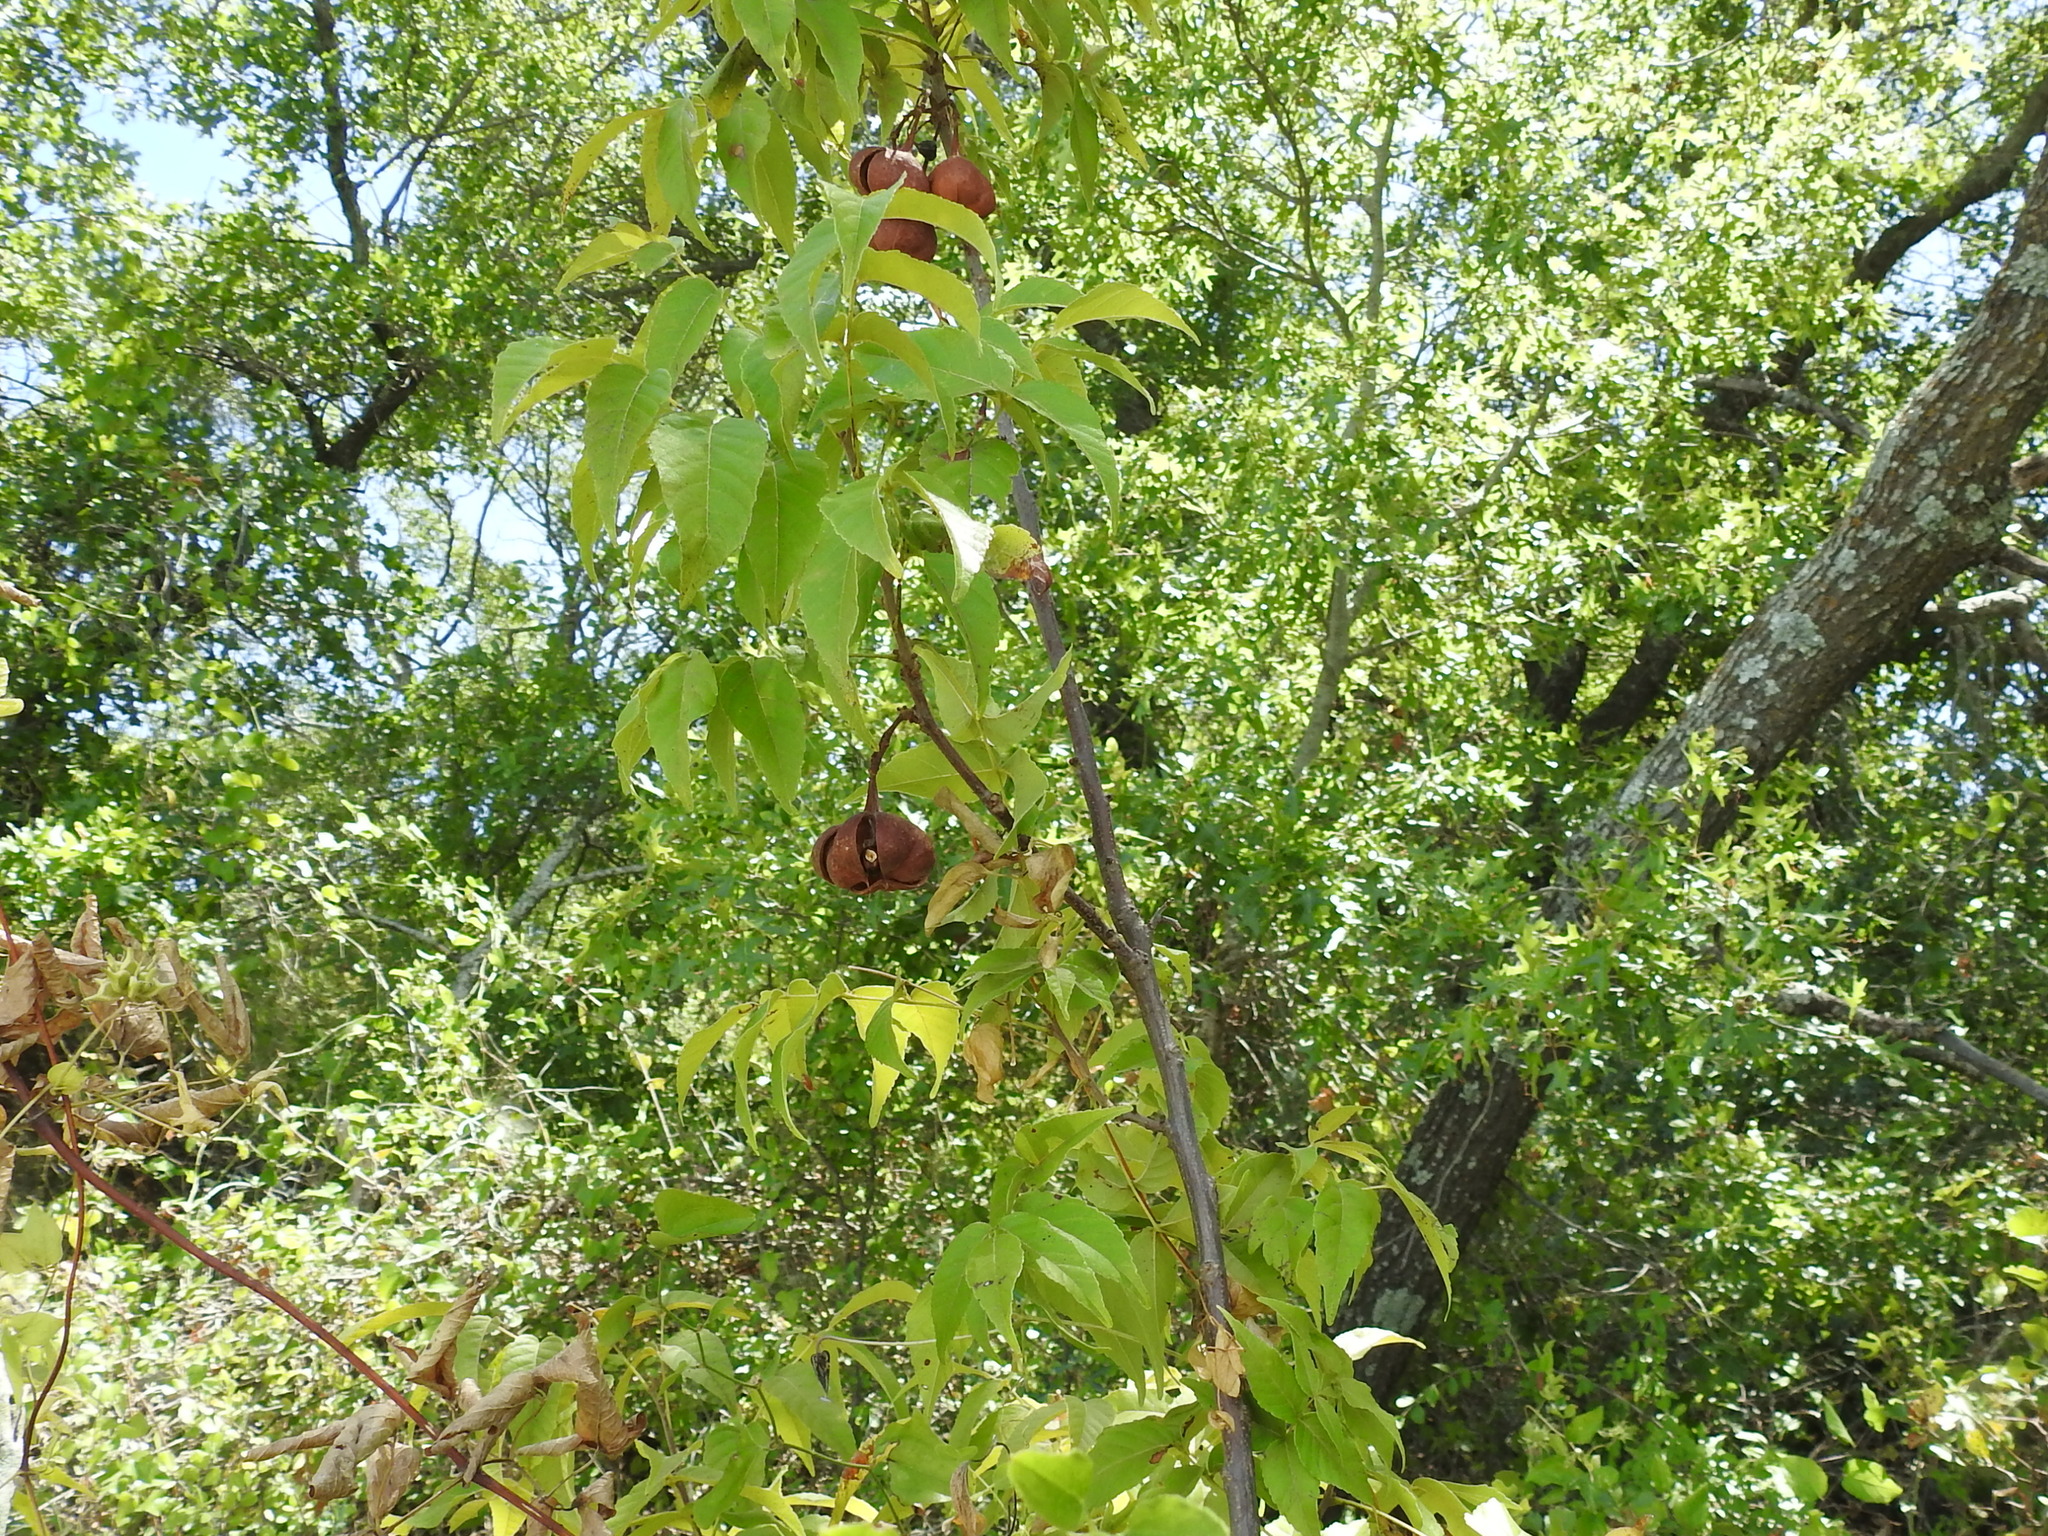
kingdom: Plantae
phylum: Tracheophyta
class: Magnoliopsida
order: Sapindales
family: Sapindaceae
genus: Ungnadia
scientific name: Ungnadia speciosa
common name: Texas-buckeye
